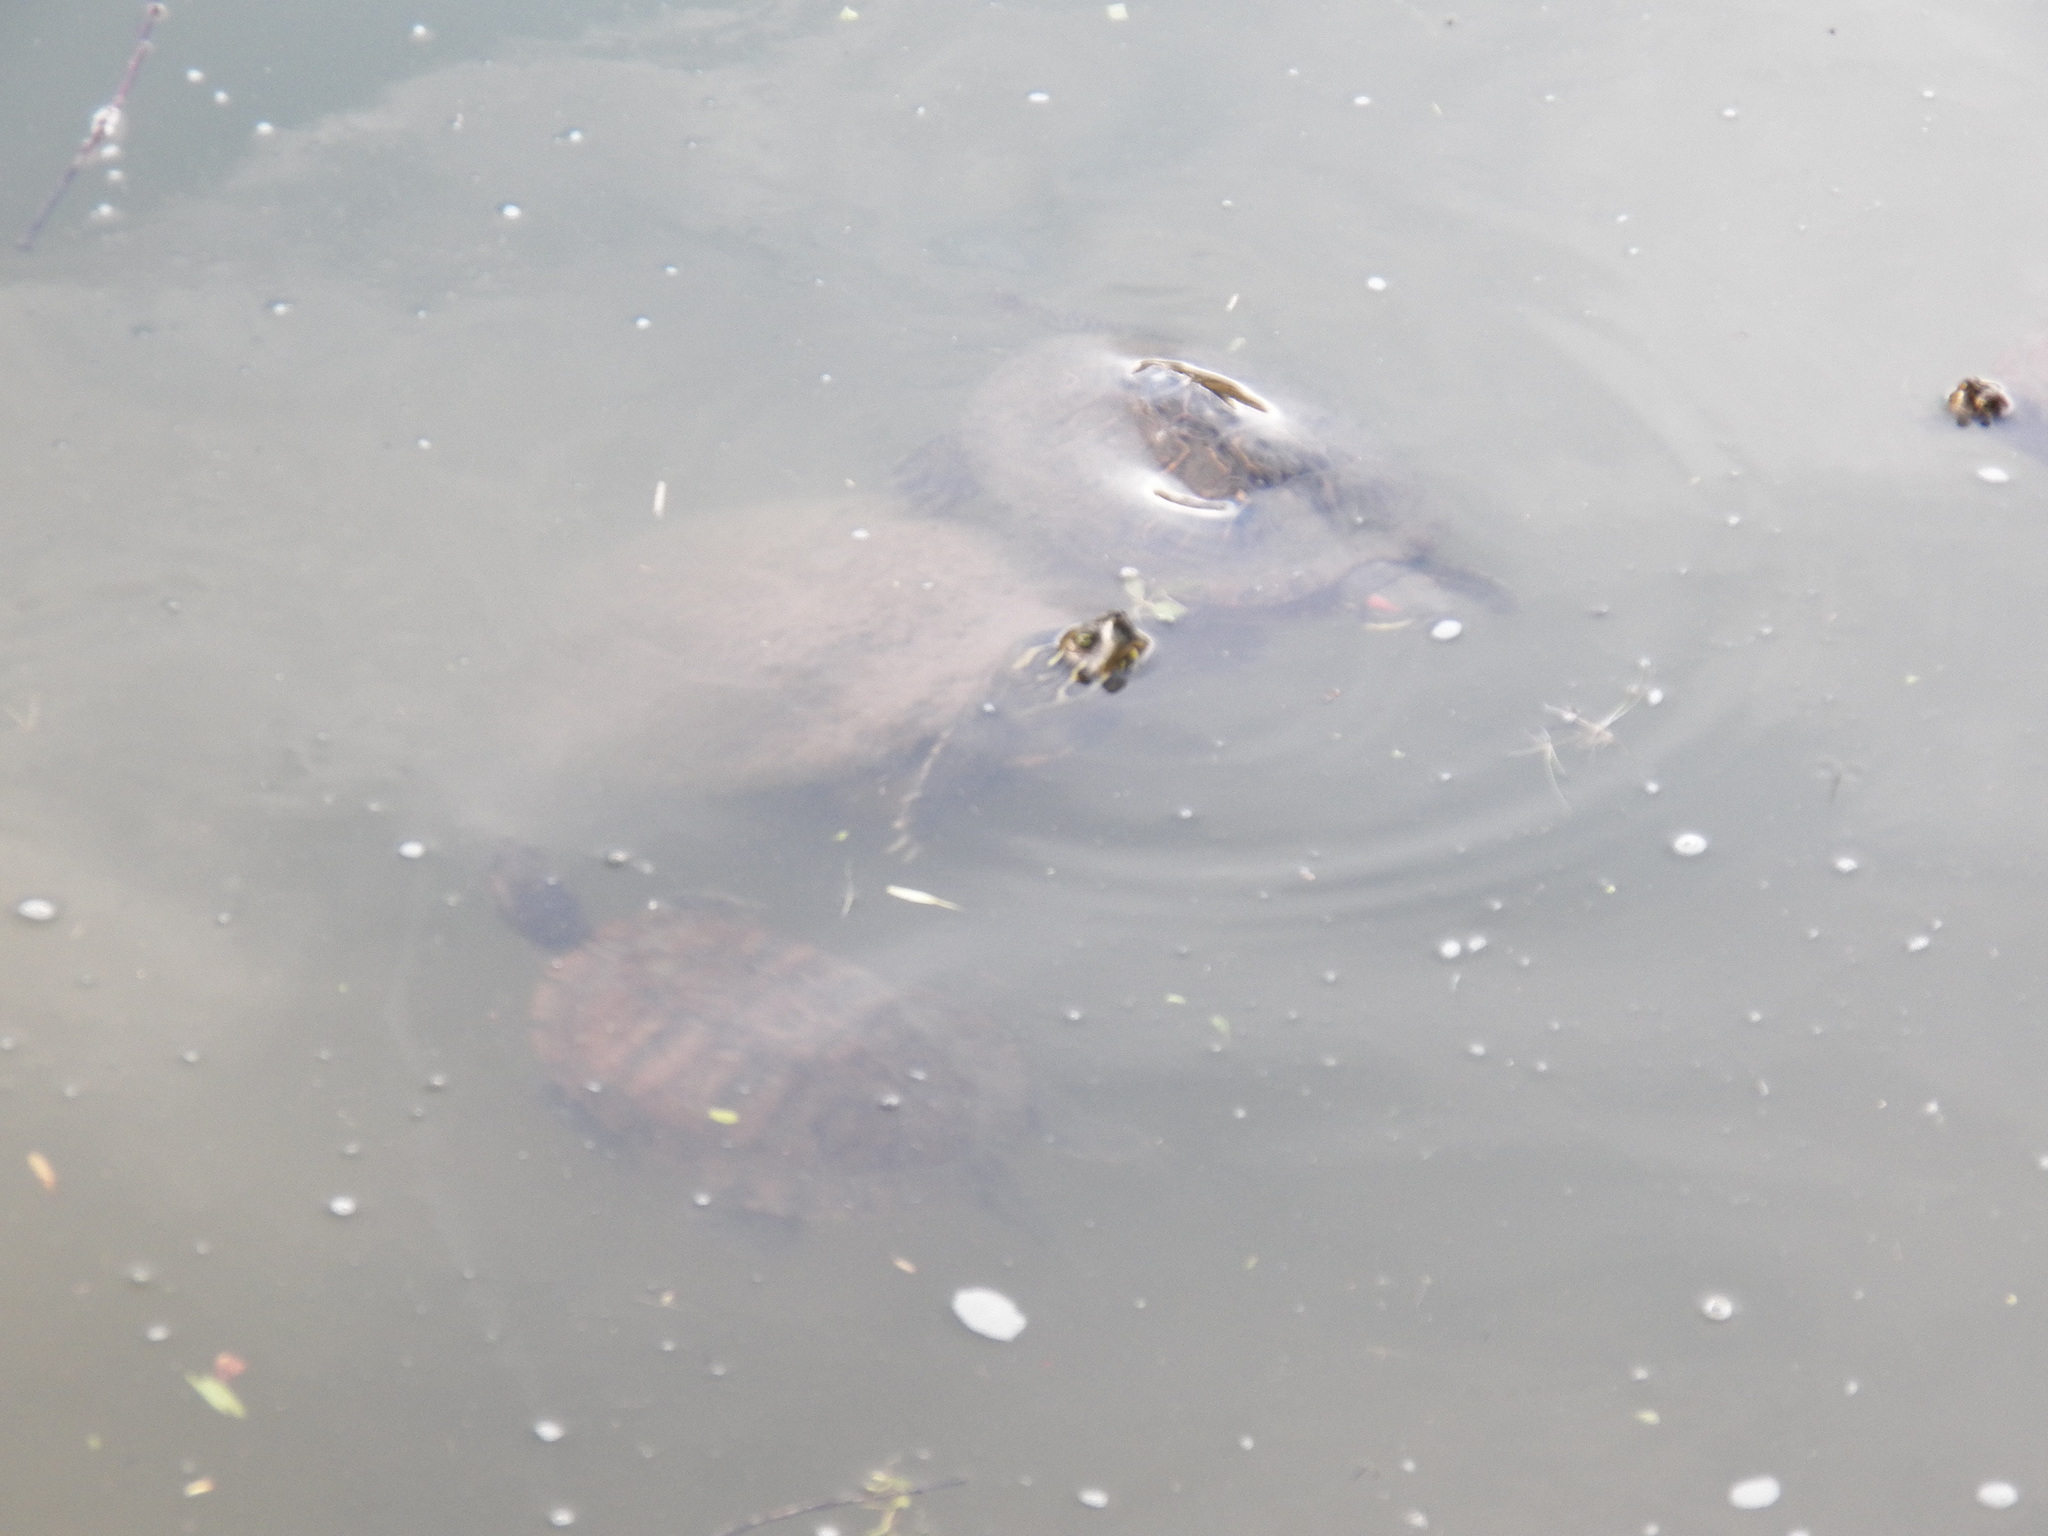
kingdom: Animalia
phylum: Chordata
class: Testudines
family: Emydidae
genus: Trachemys
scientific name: Trachemys scripta
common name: Slider
